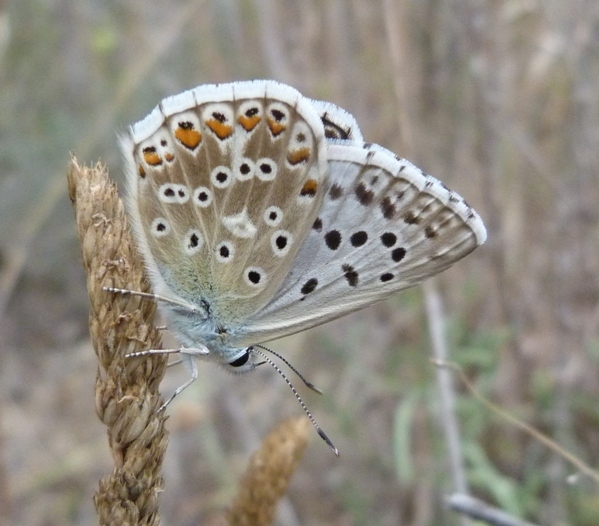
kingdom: Animalia
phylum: Arthropoda
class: Insecta
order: Lepidoptera
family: Lycaenidae
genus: Lysandra
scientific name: Lysandra hispana
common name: Provence chalkhill blue
